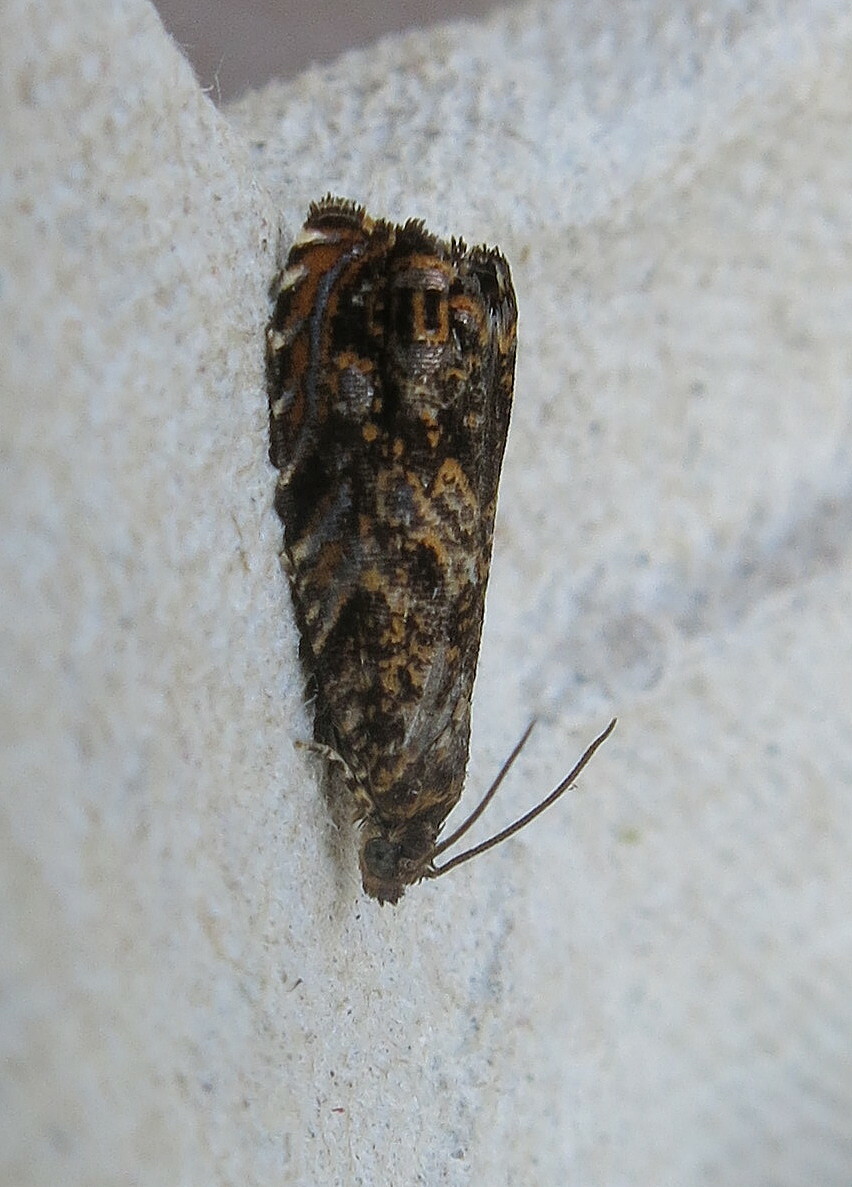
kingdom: Animalia
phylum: Arthropoda
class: Insecta
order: Lepidoptera
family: Tortricidae
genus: Enarmonia
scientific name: Enarmonia formosana
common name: Cherry bark tortrix
